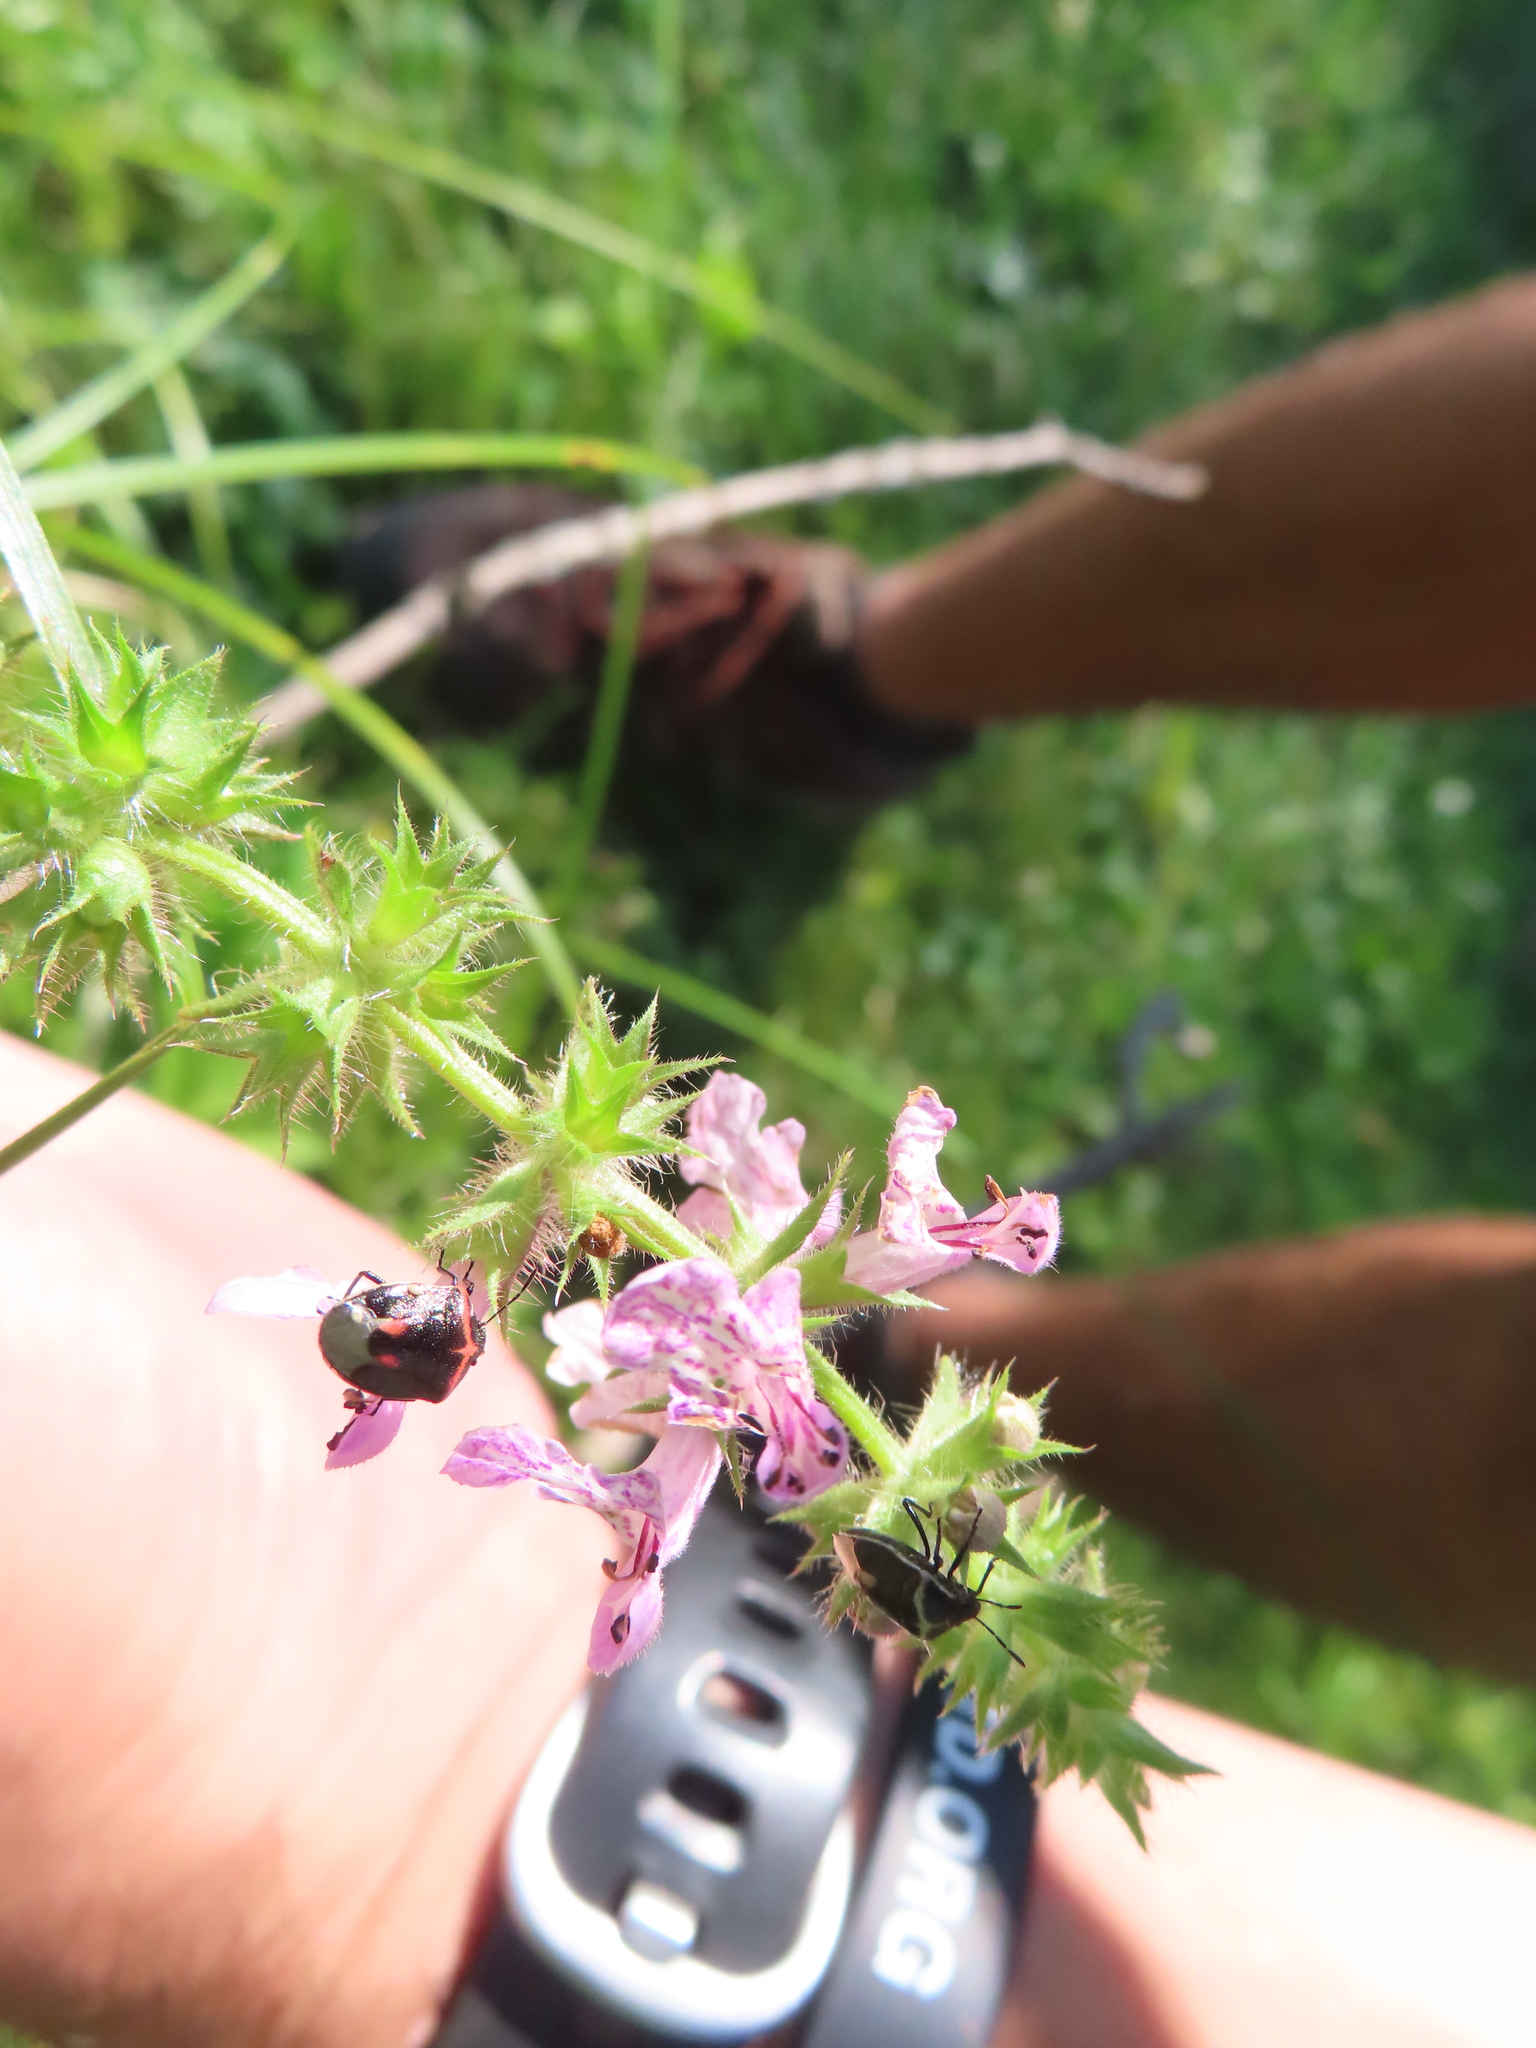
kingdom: Animalia
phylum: Arthropoda
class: Insecta
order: Hemiptera
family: Pentatomidae
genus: Cosmopepla
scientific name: Cosmopepla lintneriana
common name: Twice-stabbed stink bug
